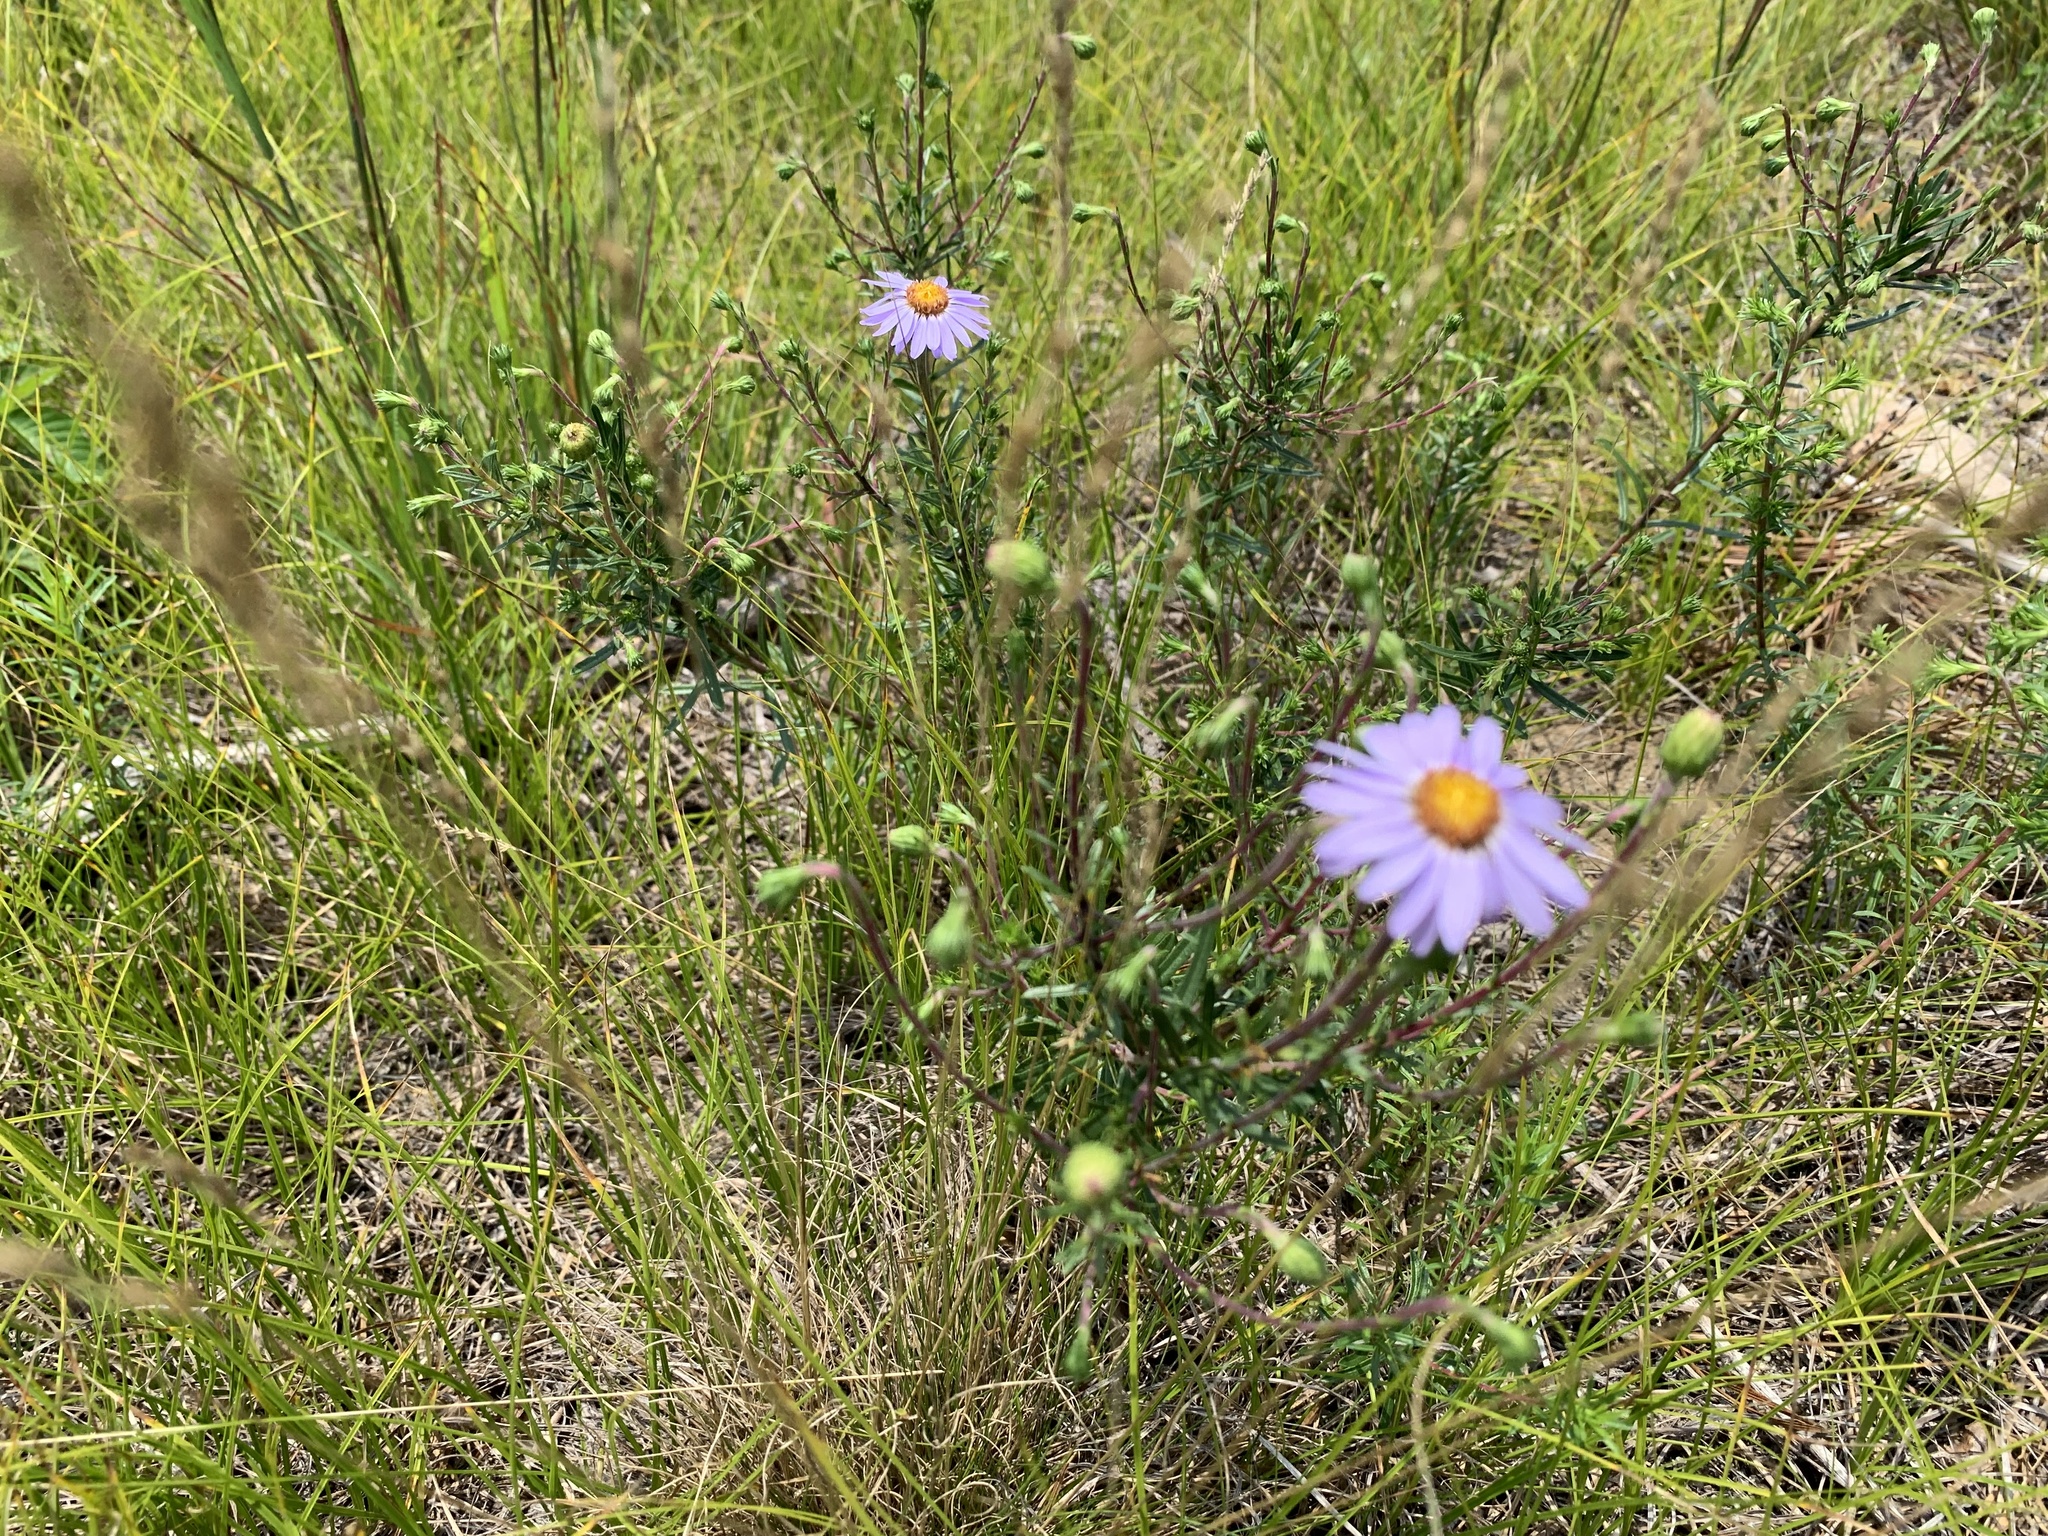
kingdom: Plantae
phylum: Tracheophyta
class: Magnoliopsida
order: Asterales
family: Asteraceae
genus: Ionactis
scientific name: Ionactis linariifolia
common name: Flax-leaf aster
